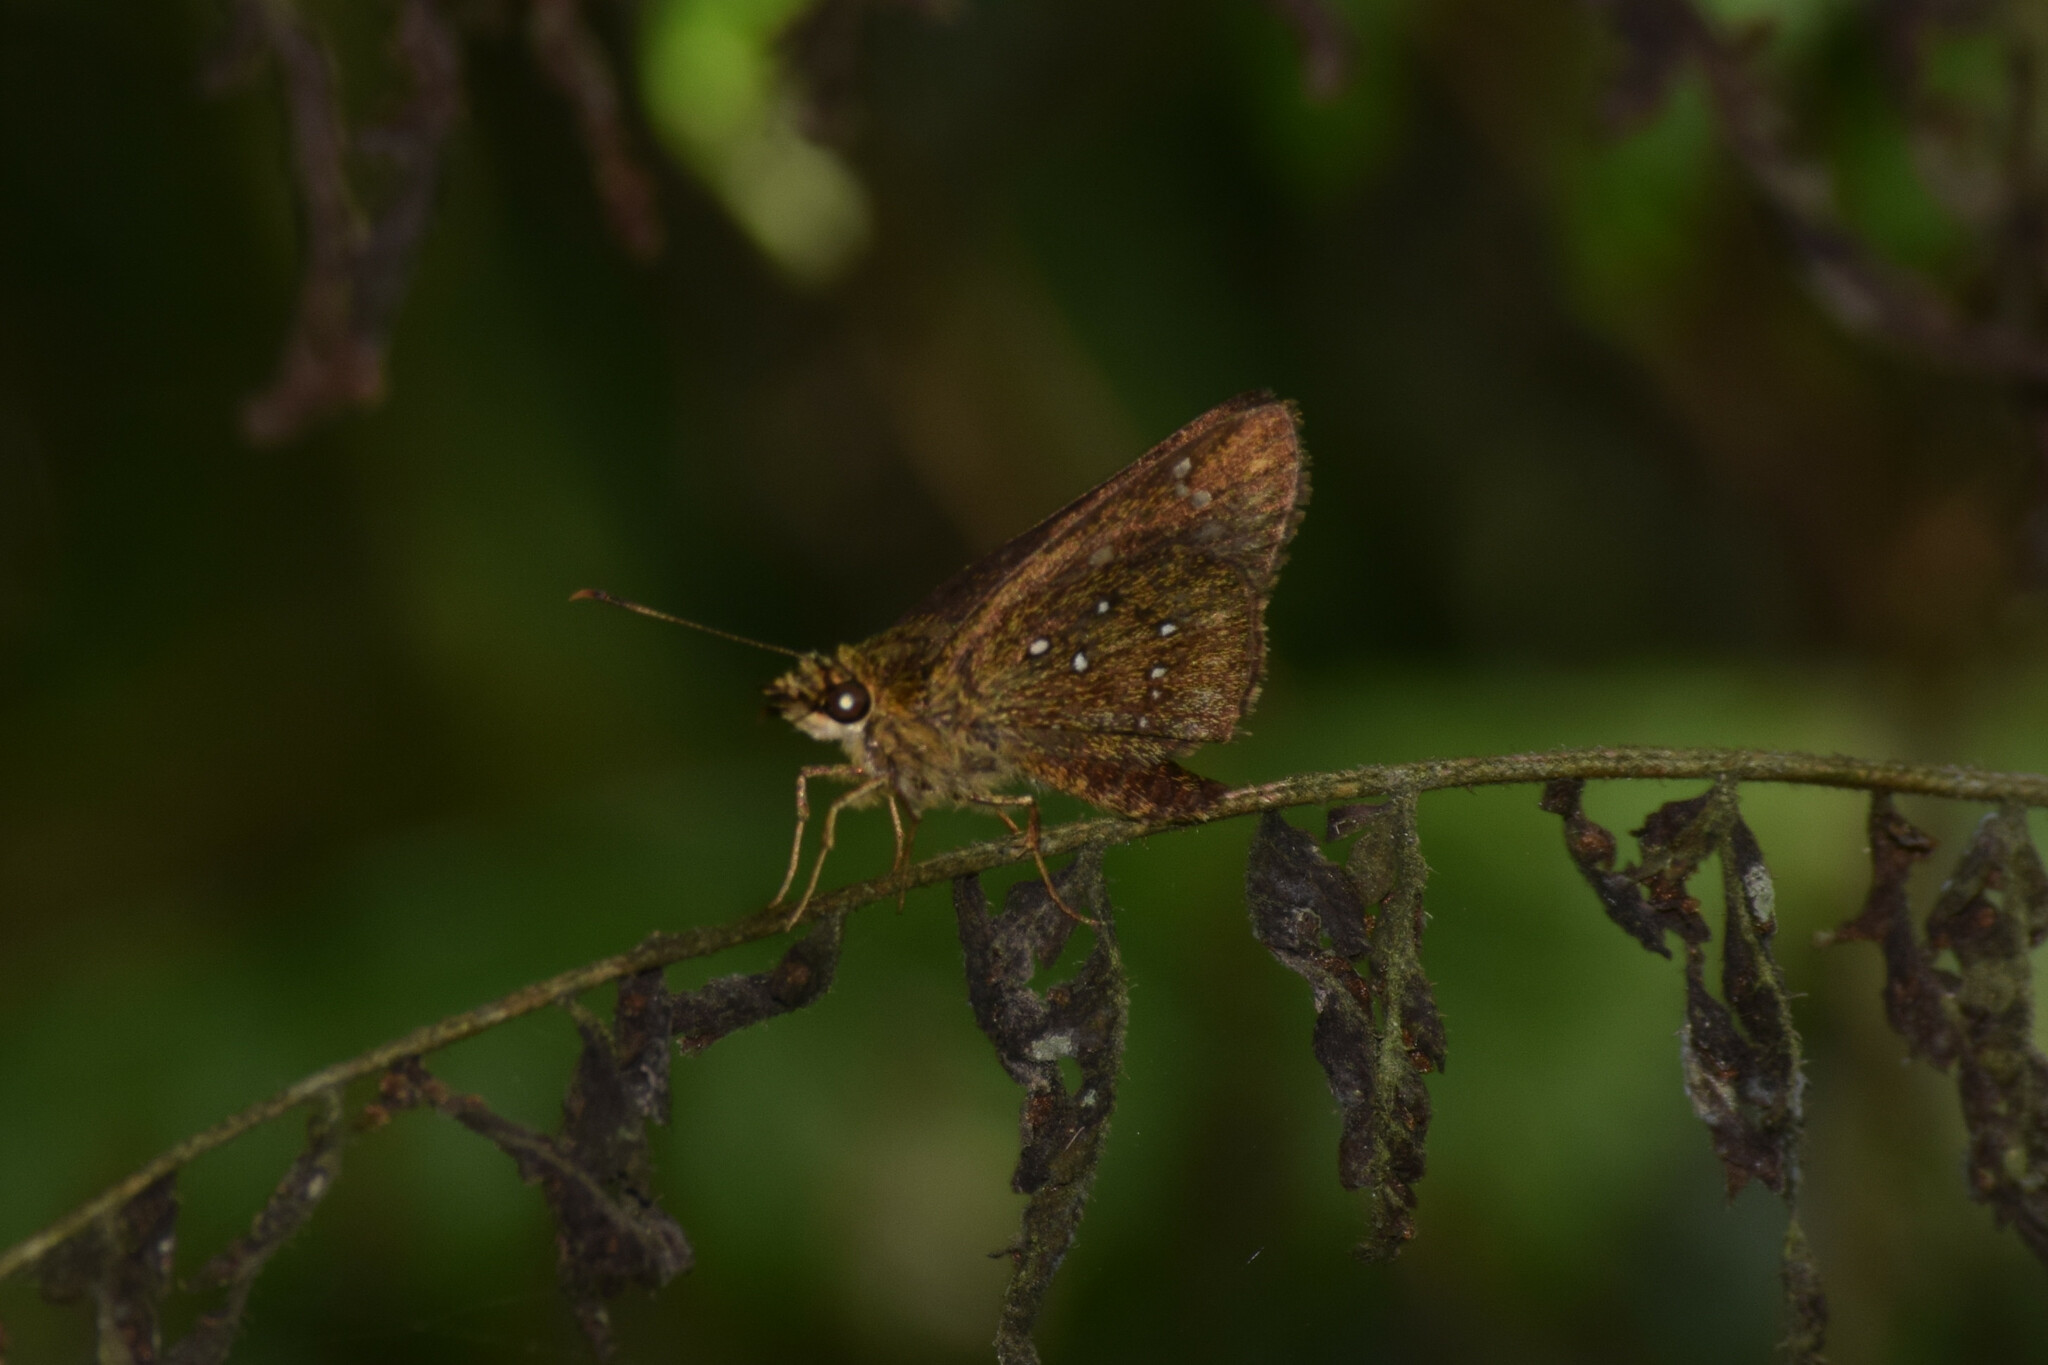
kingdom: Animalia
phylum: Arthropoda
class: Insecta
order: Lepidoptera
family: Hesperiidae
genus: Arnetta
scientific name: Arnetta atkinsoni
